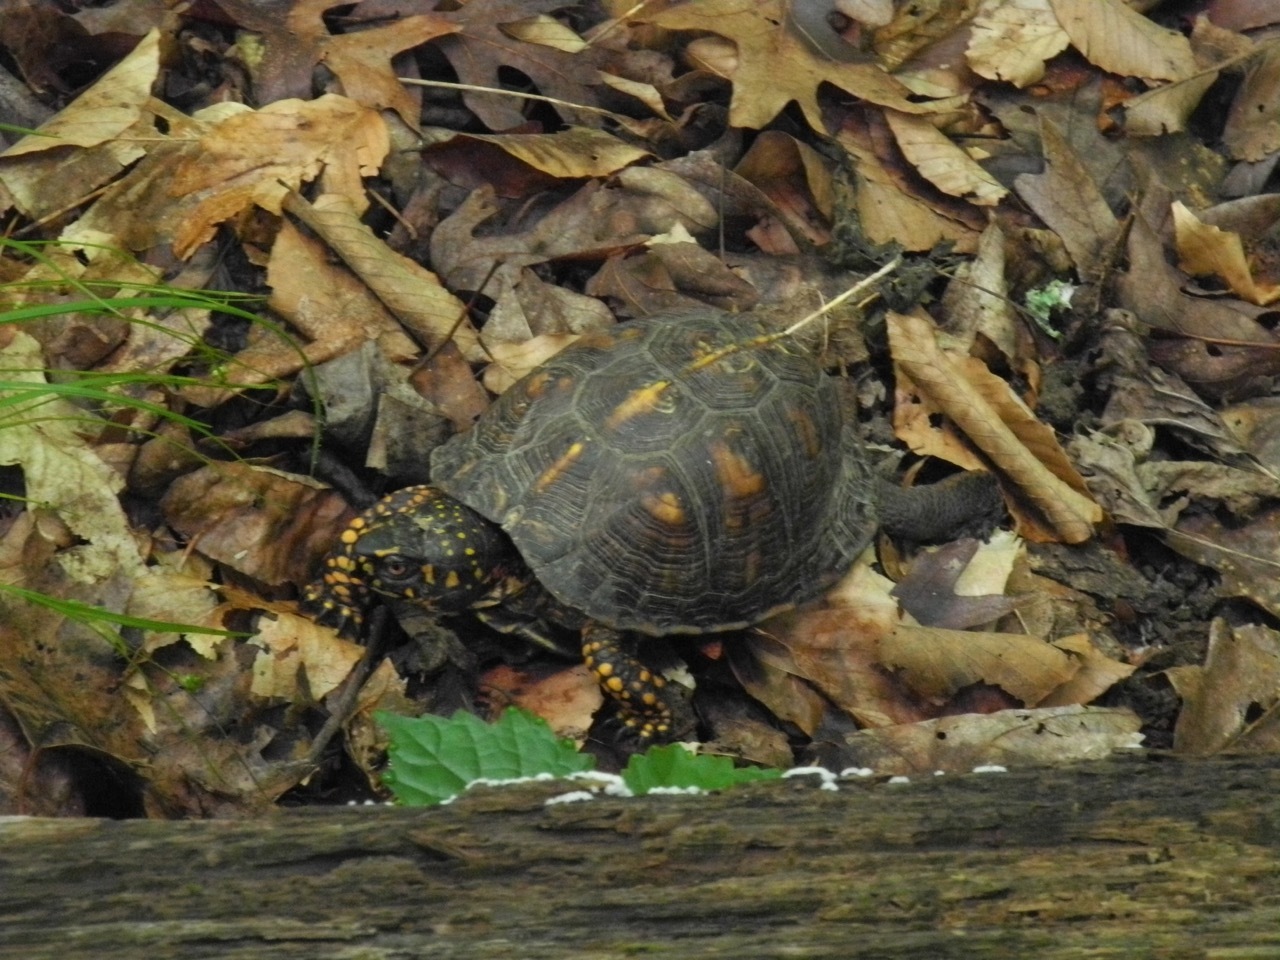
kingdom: Animalia
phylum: Chordata
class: Testudines
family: Emydidae
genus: Terrapene
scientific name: Terrapene carolina
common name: Common box turtle
